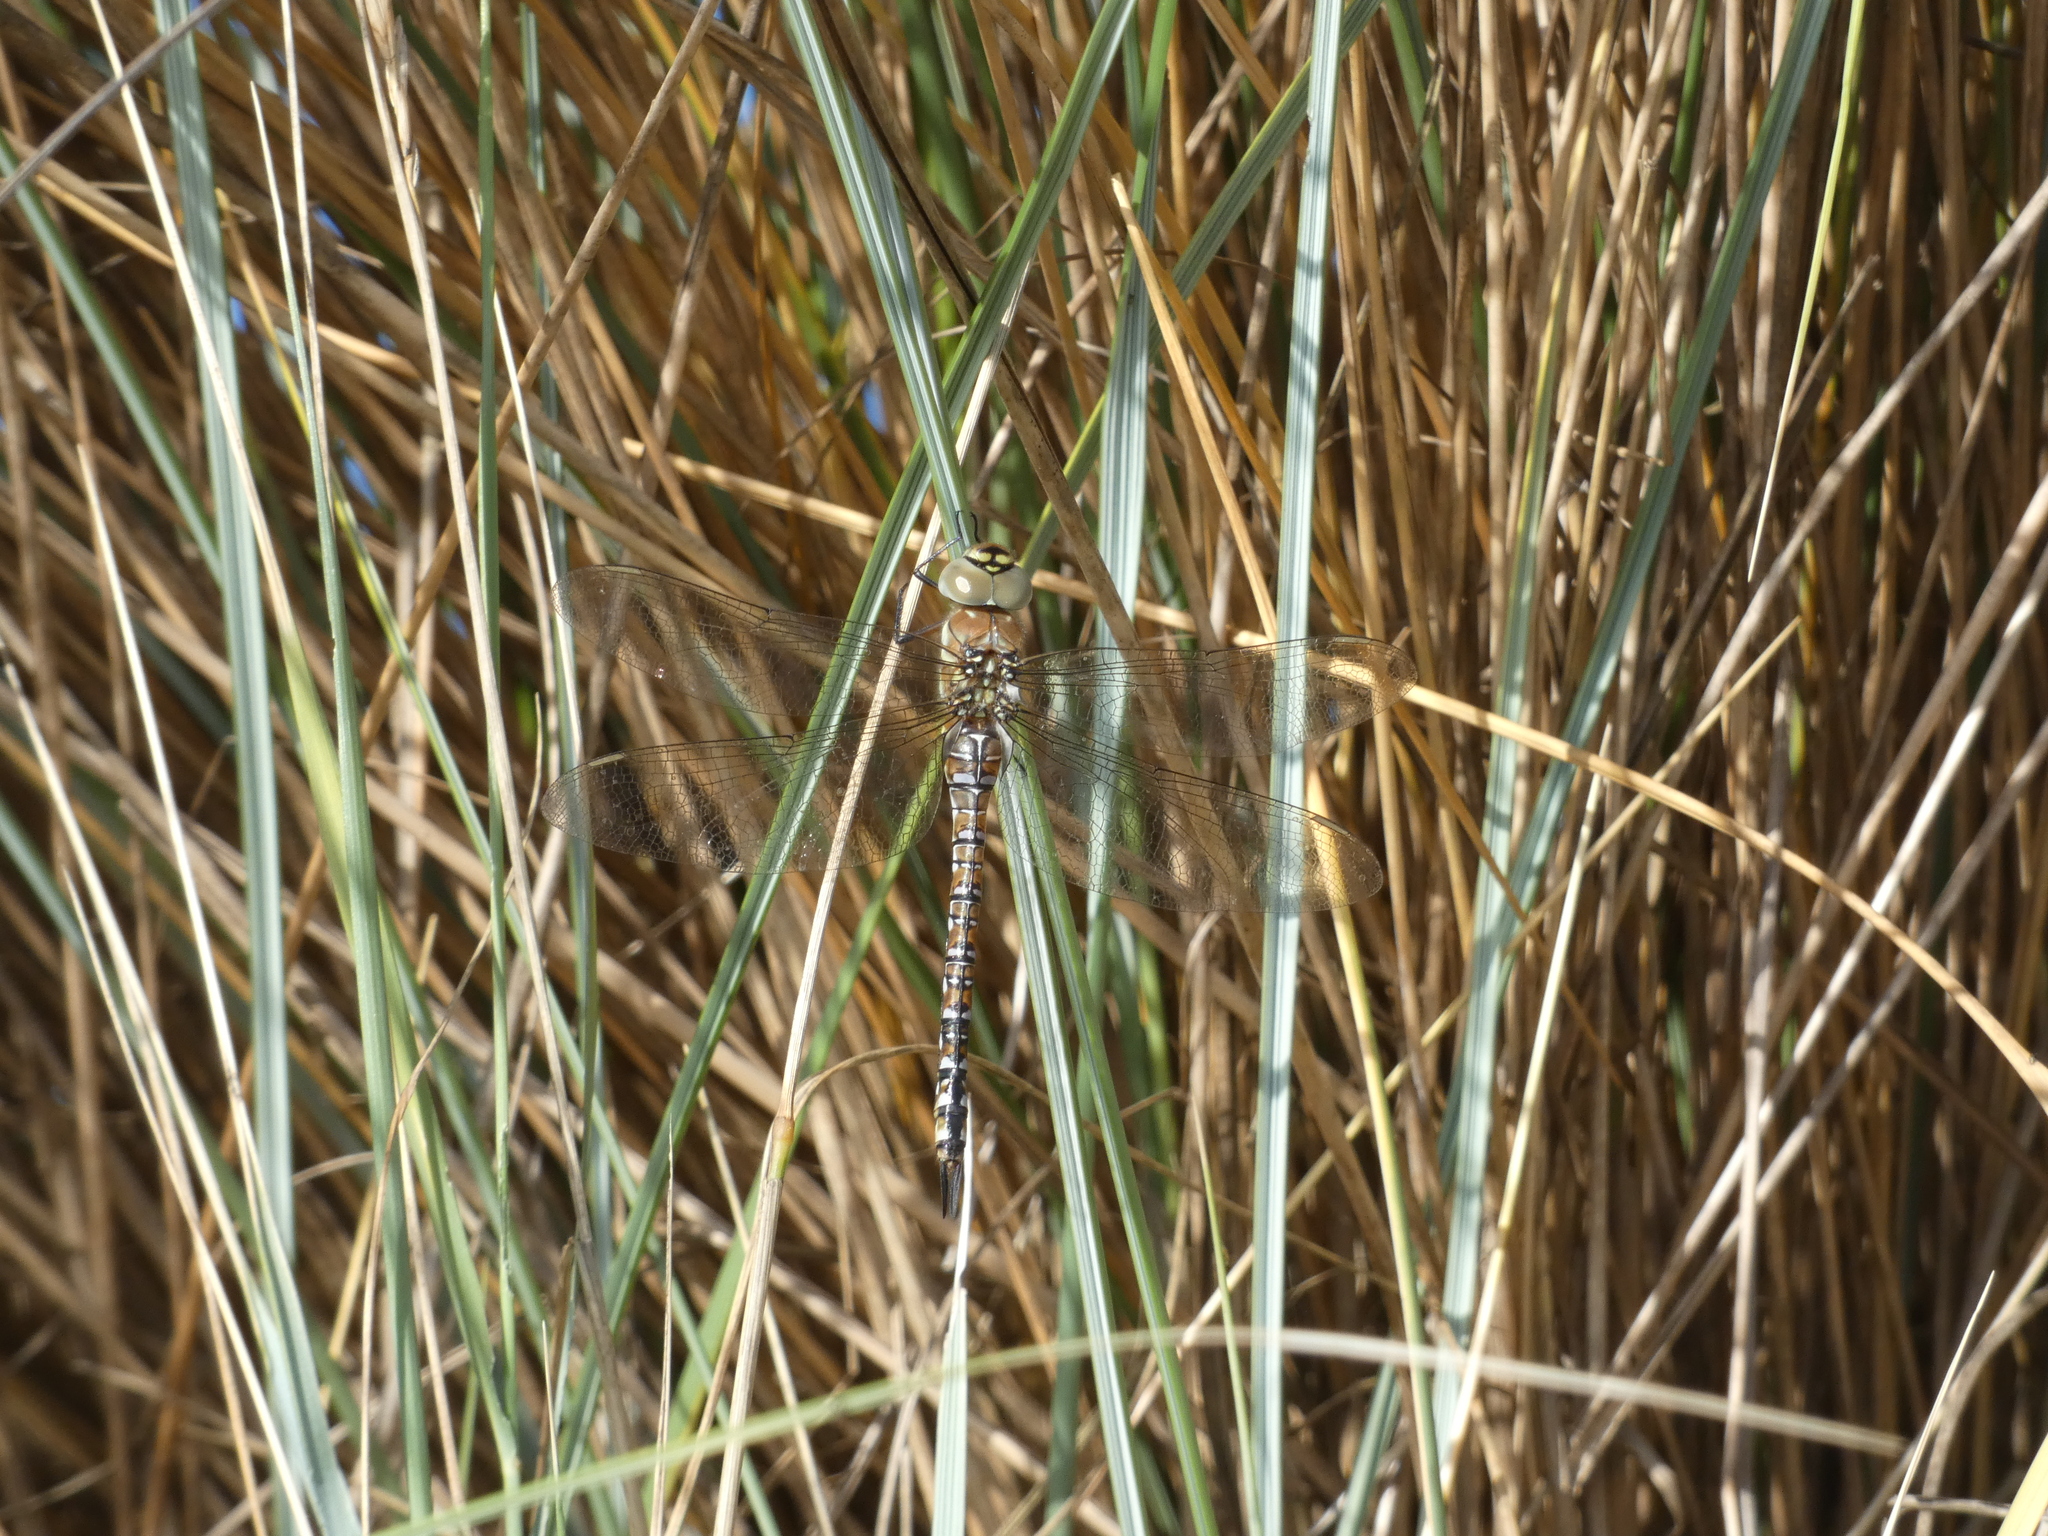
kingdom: Animalia
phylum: Arthropoda
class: Insecta
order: Odonata
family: Aeshnidae
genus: Aeshna
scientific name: Aeshna mixta
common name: Migrant hawker
